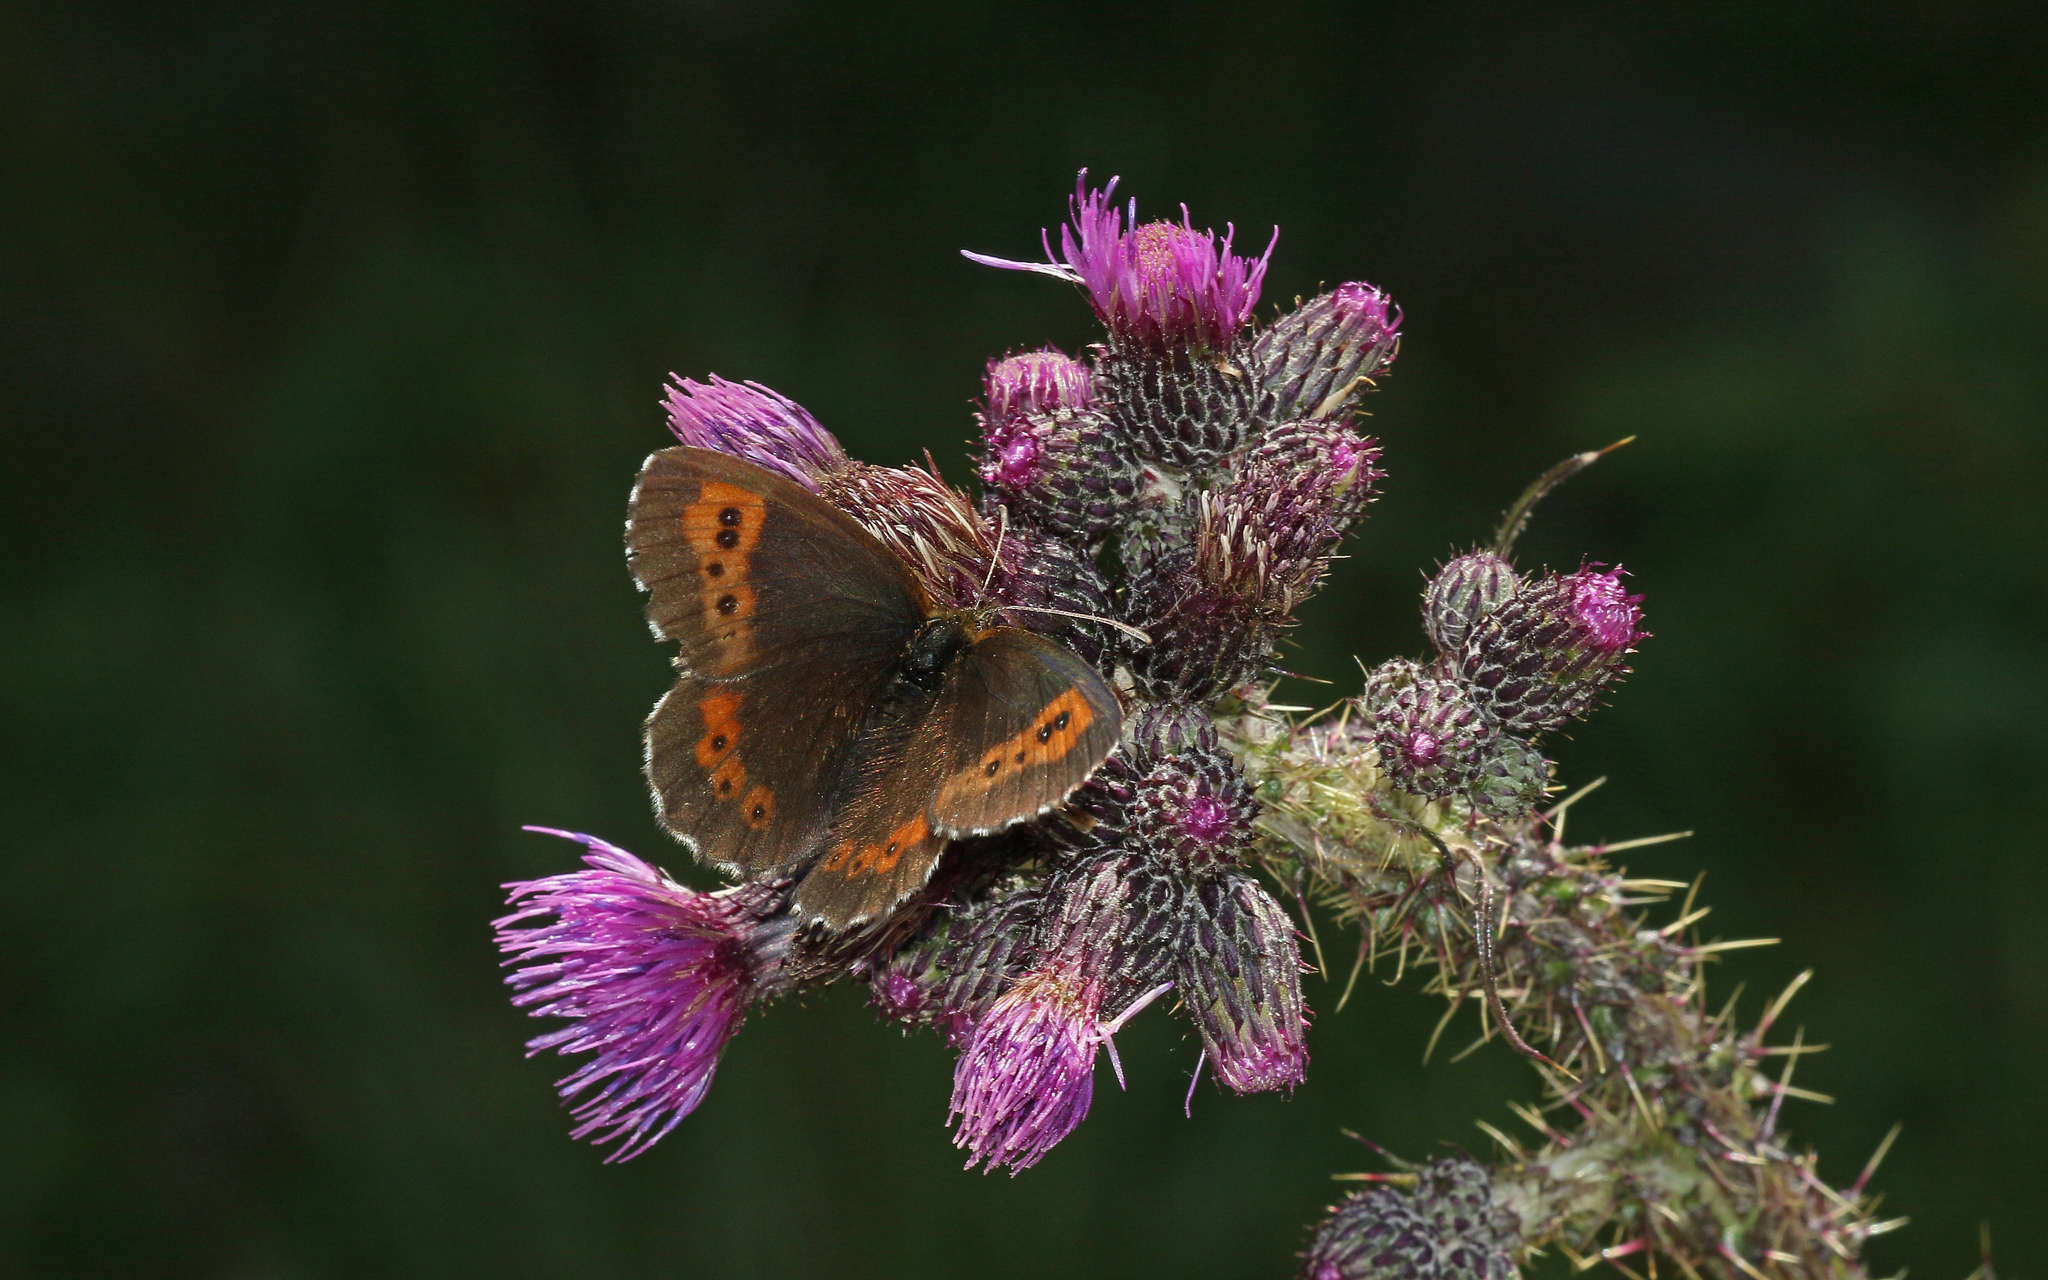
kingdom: Animalia
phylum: Arthropoda
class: Insecta
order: Lepidoptera
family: Nymphalidae
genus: Erebia
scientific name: Erebia euryale
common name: Large ringlet
